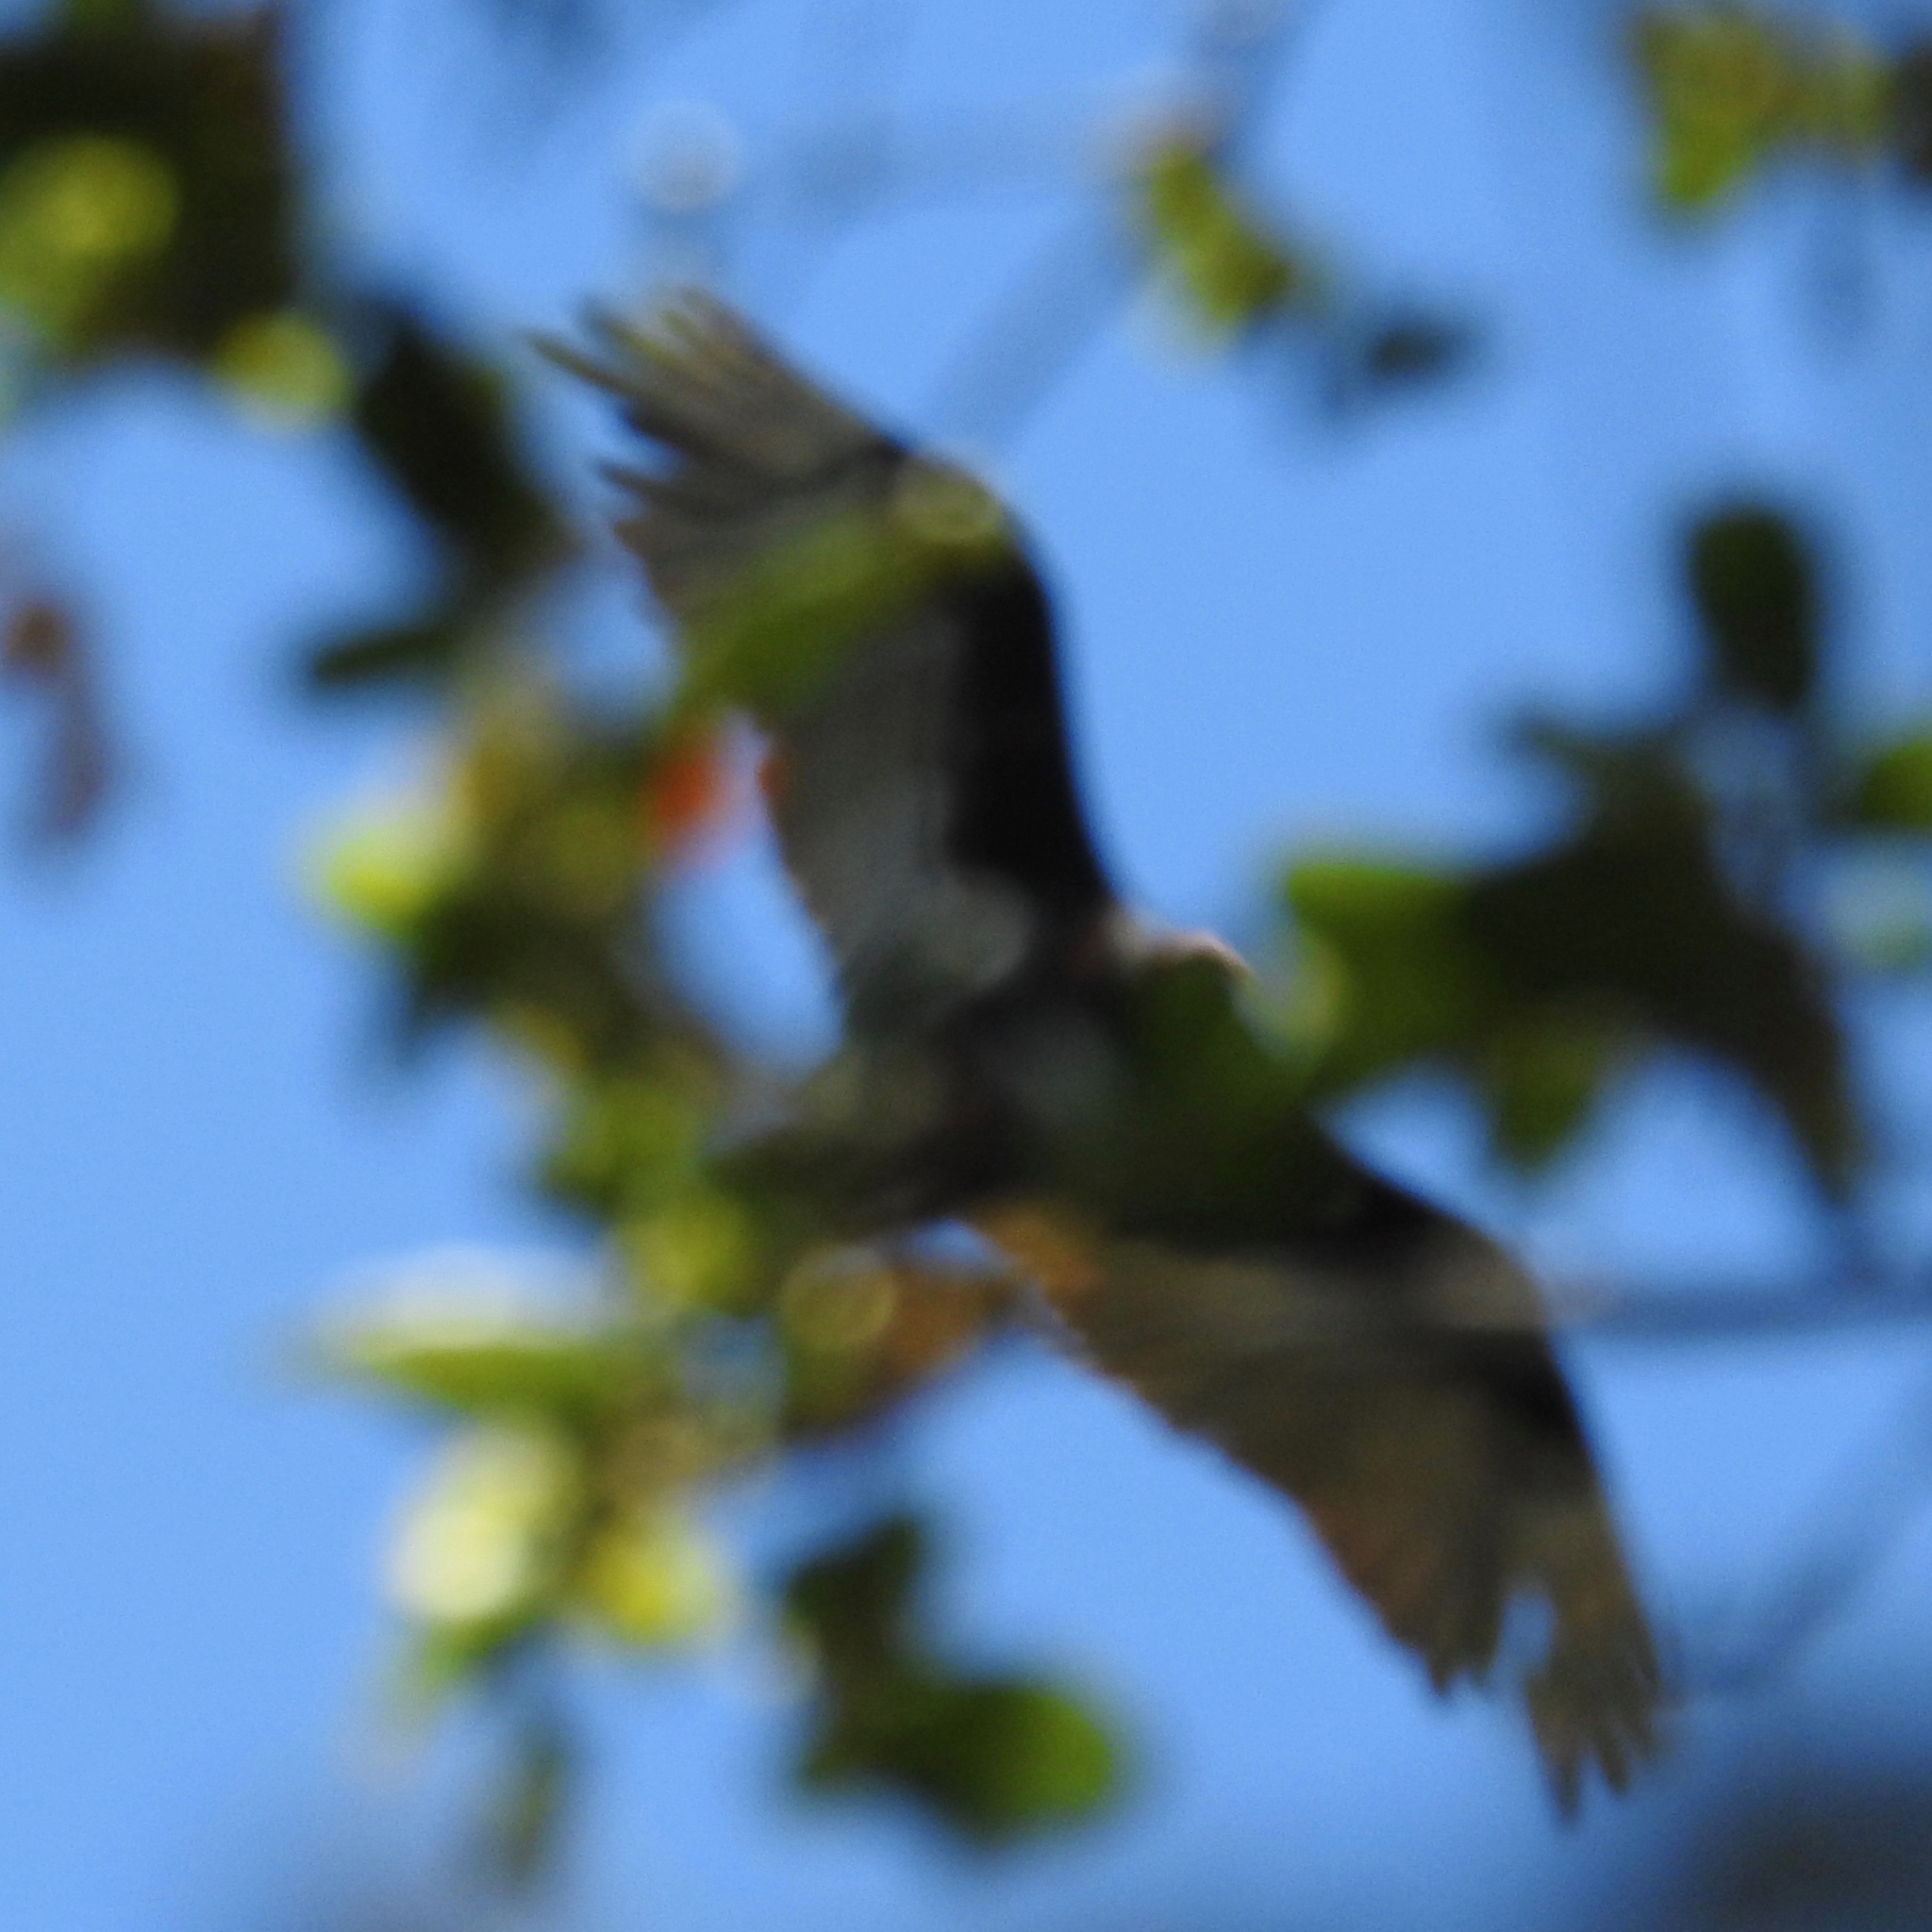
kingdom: Animalia
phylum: Chordata
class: Aves
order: Accipitriformes
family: Cathartidae
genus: Cathartes
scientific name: Cathartes aura
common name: Turkey vulture
